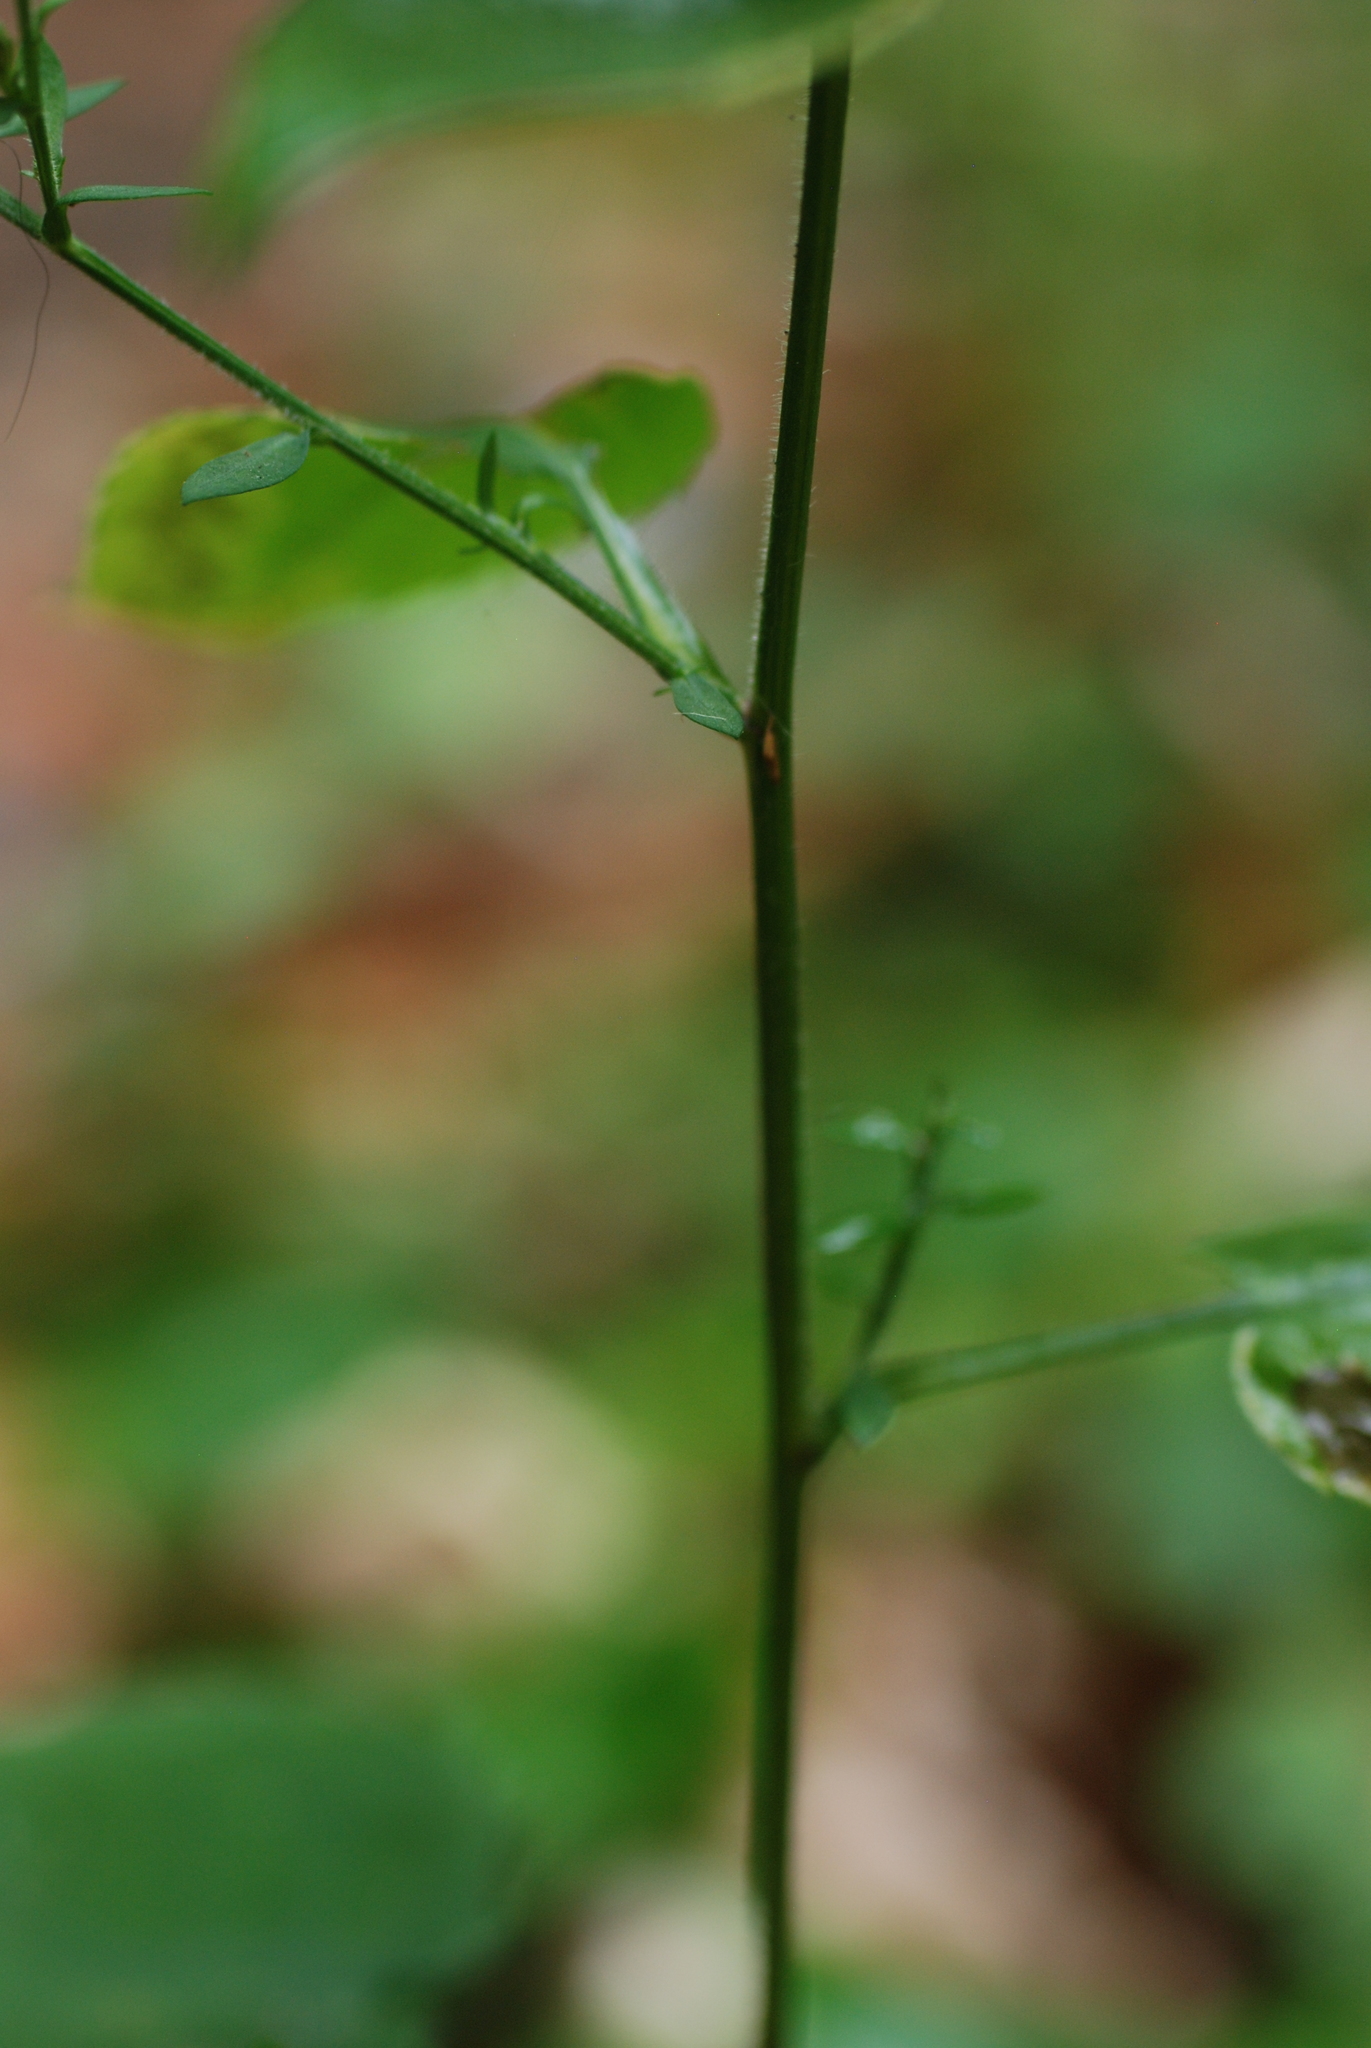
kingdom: Plantae
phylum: Tracheophyta
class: Magnoliopsida
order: Asterales
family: Asteraceae
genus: Symphyotrichum
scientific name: Symphyotrichum cordifolium
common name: Beeweed
